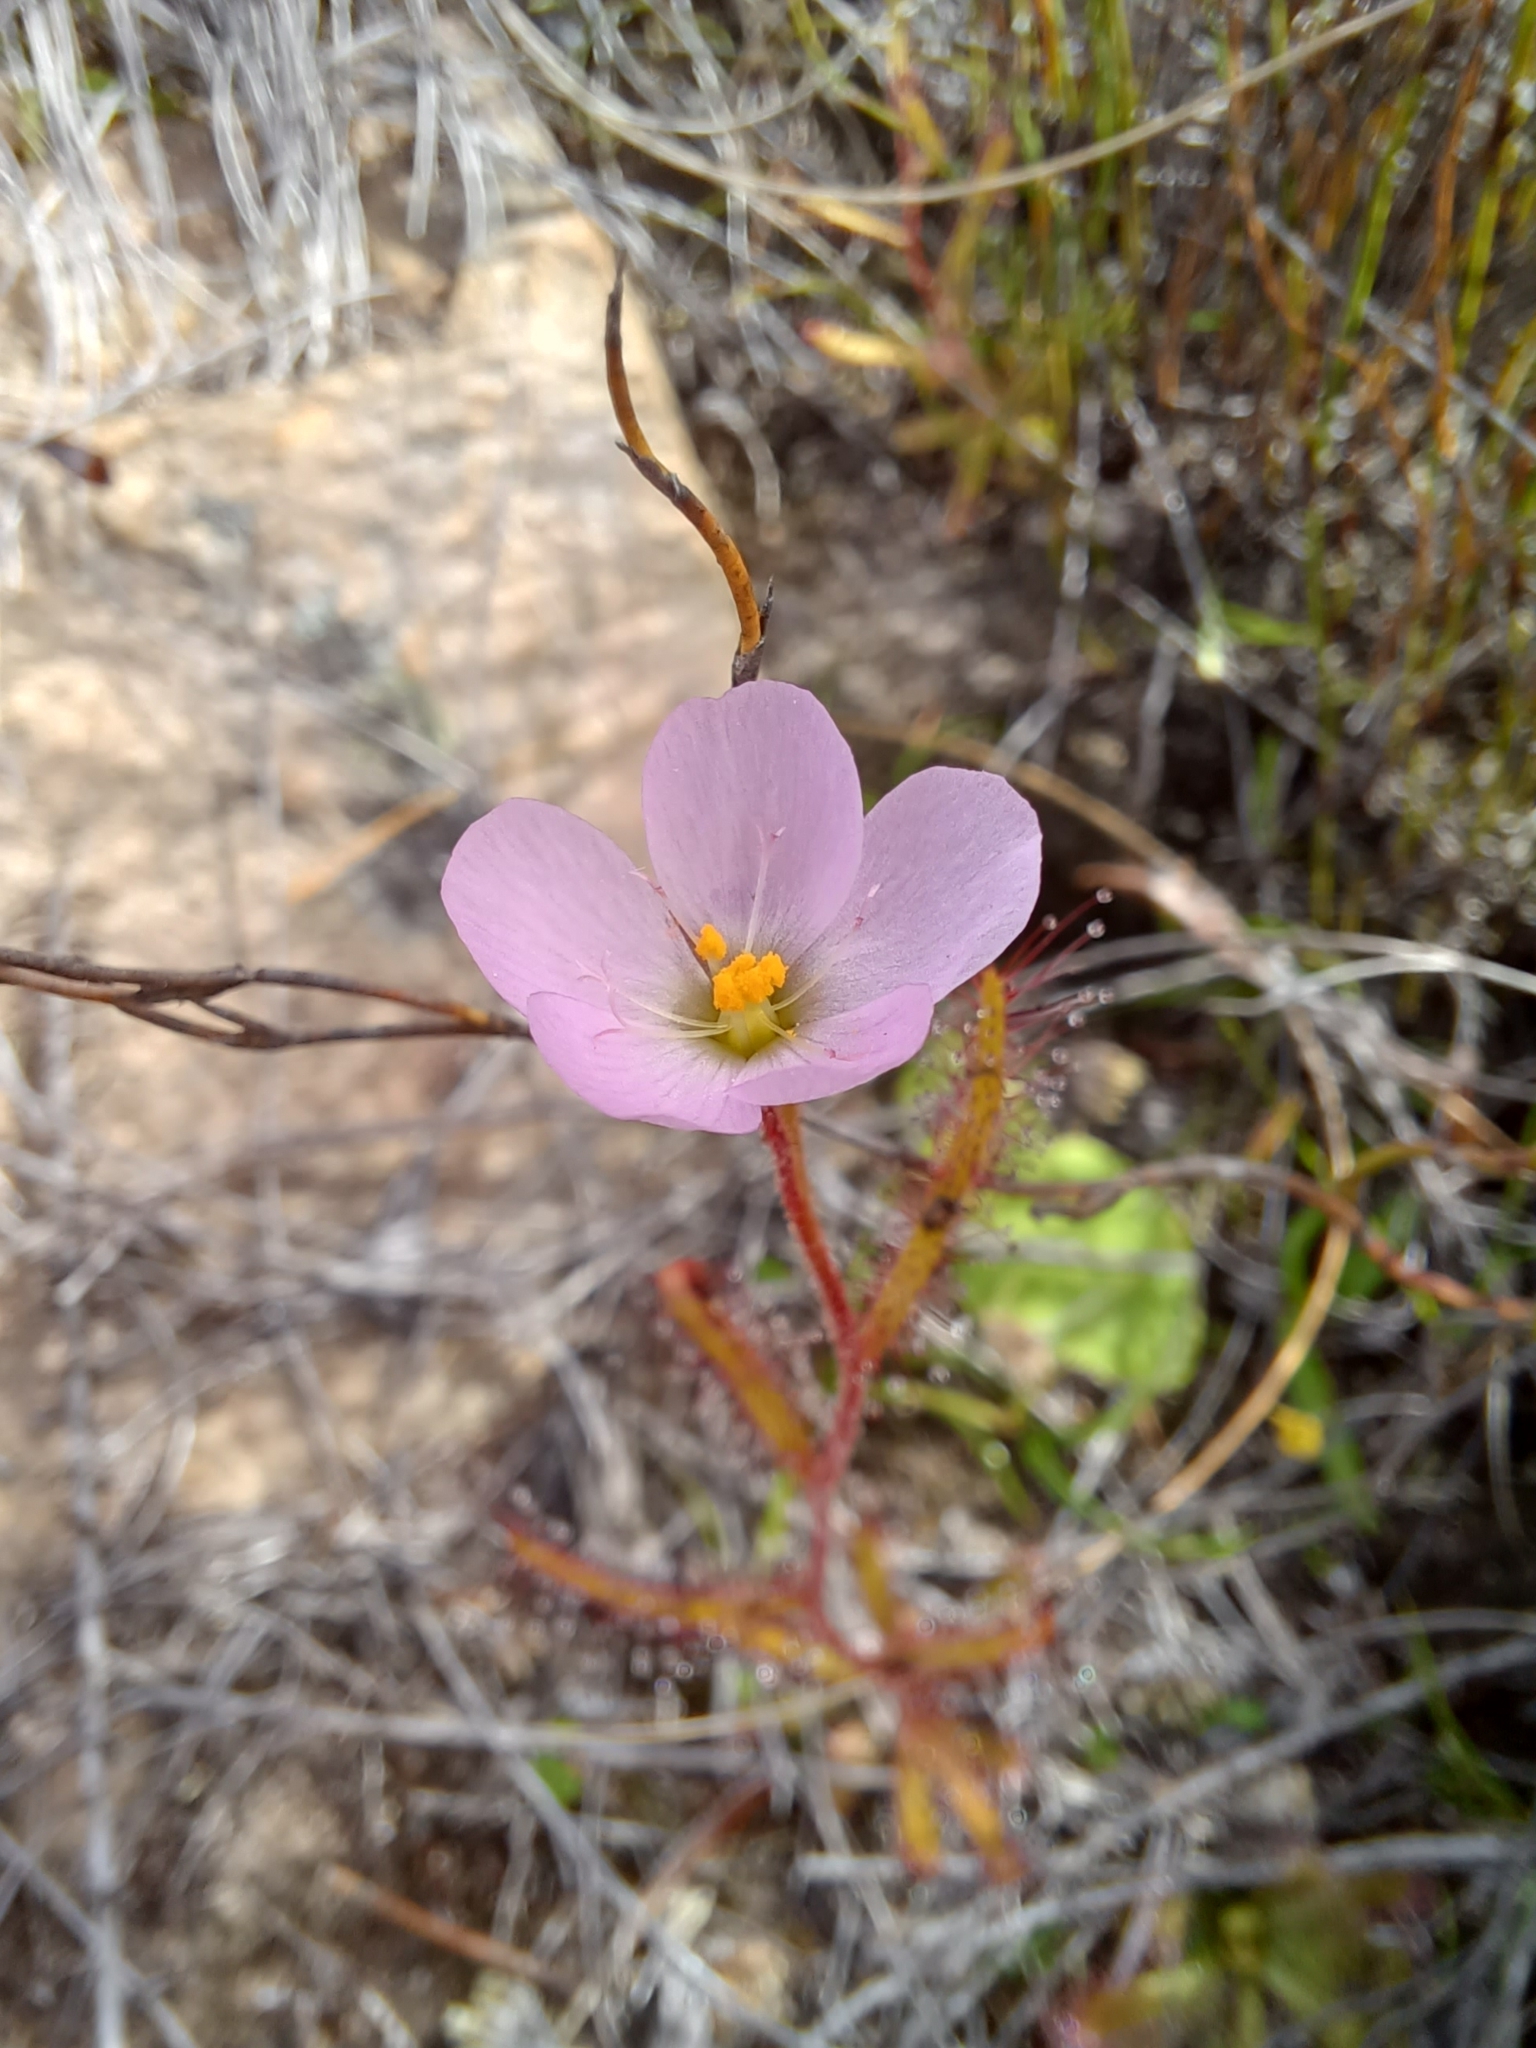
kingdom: Plantae
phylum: Tracheophyta
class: Magnoliopsida
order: Caryophyllales
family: Droseraceae
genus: Drosera
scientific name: Drosera liniflora
